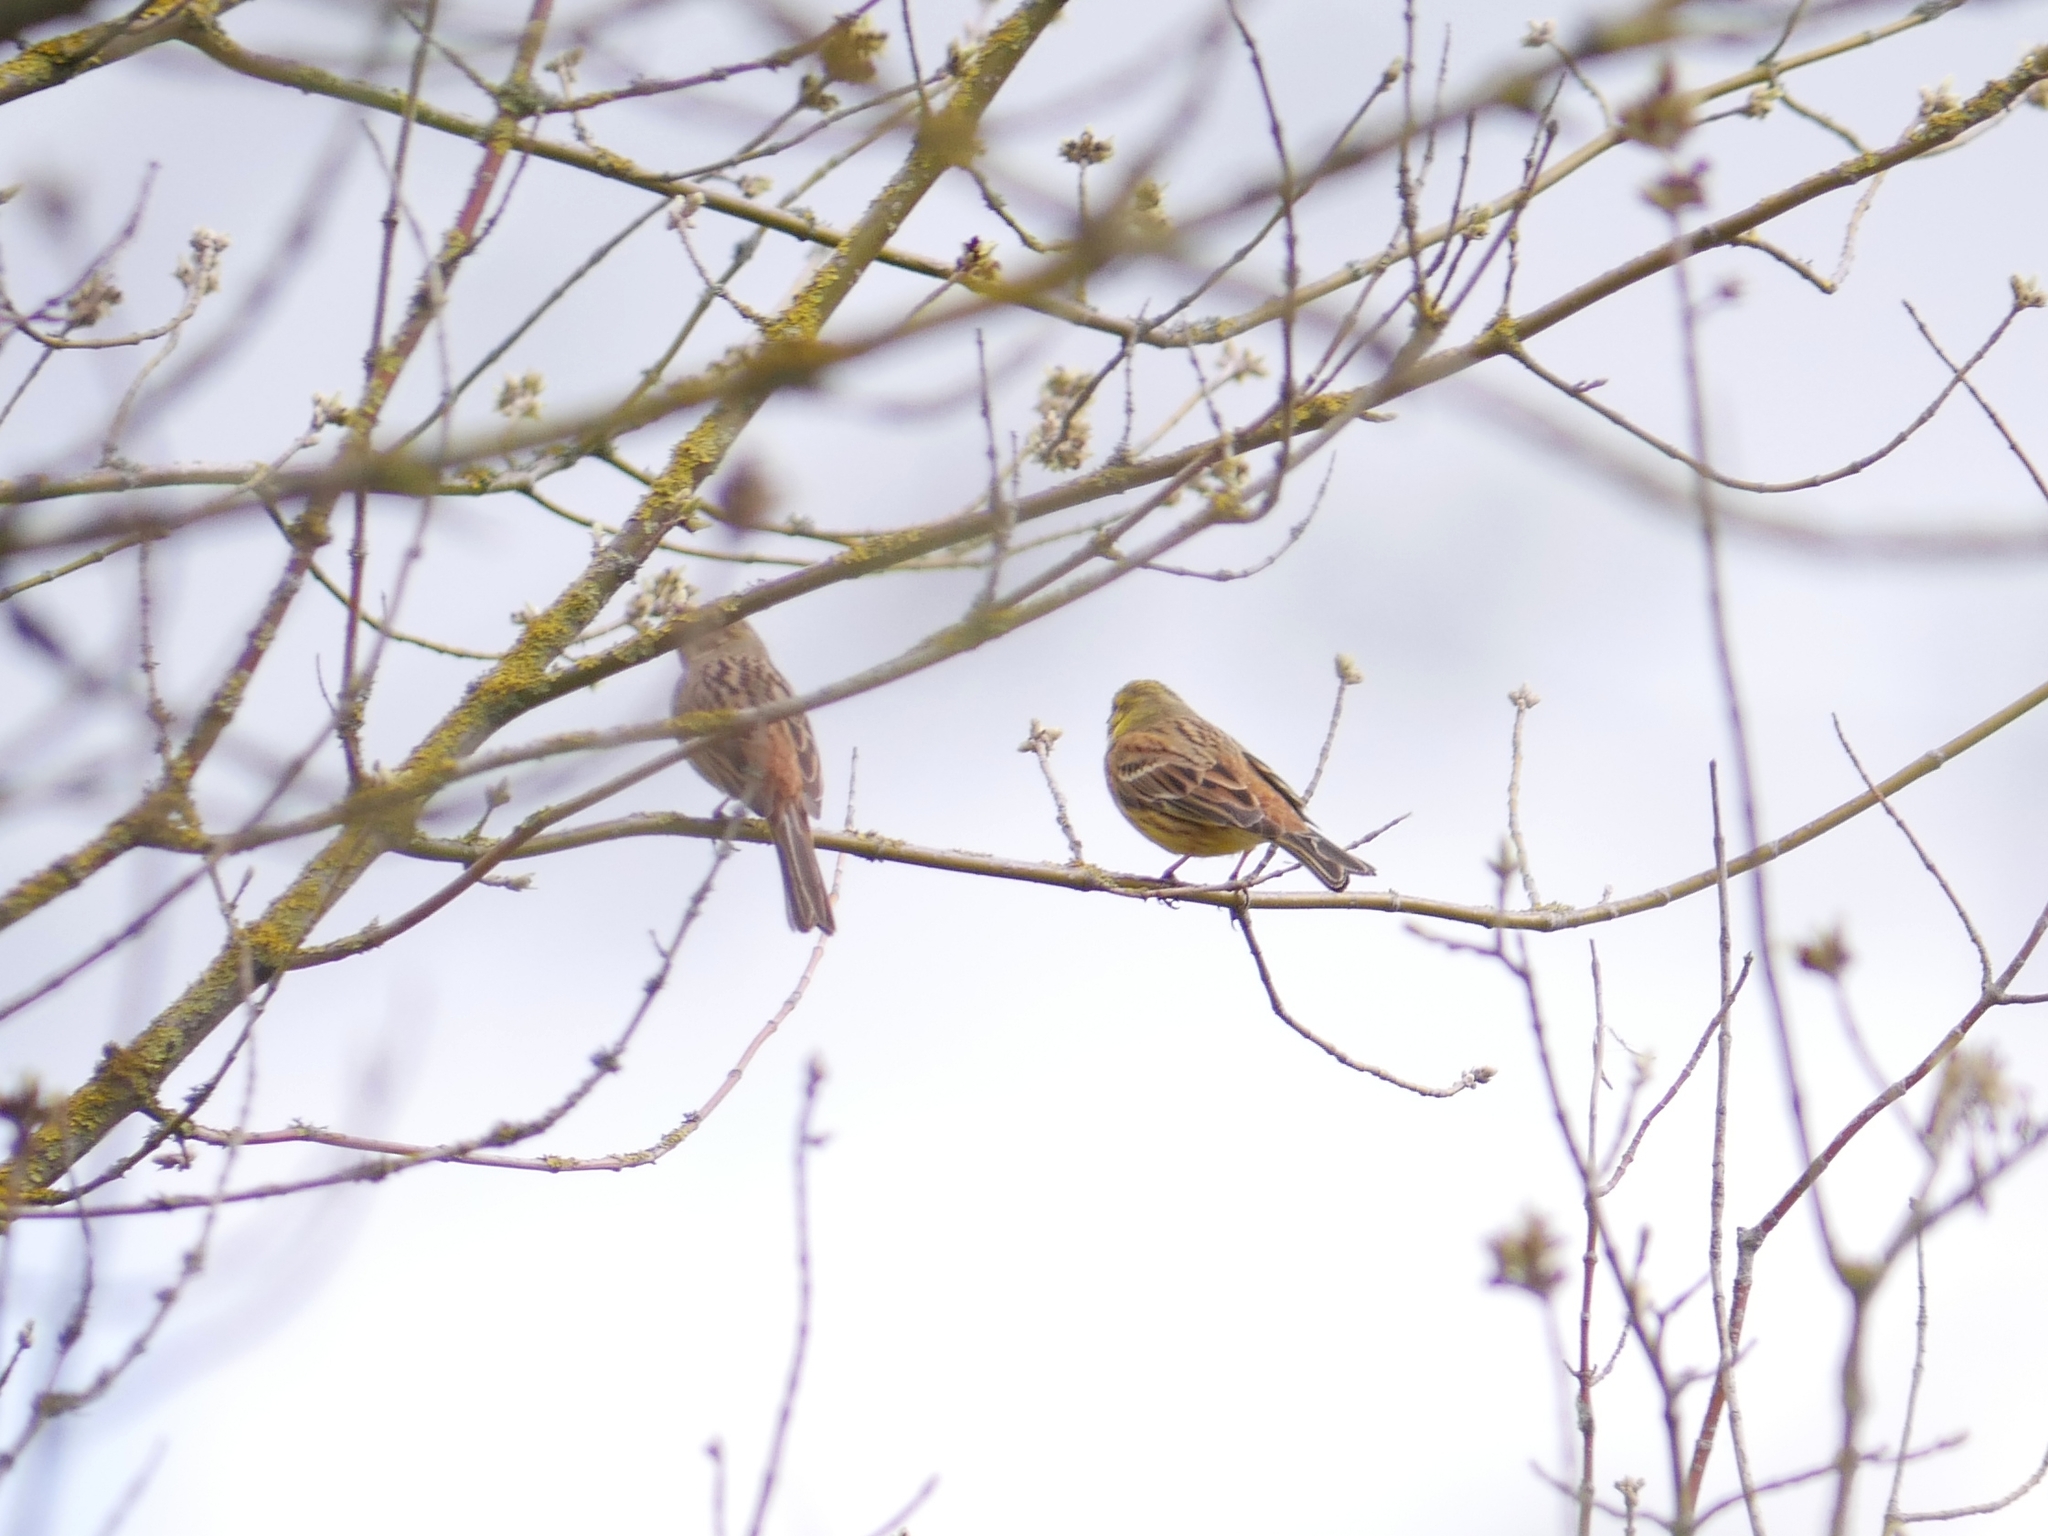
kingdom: Animalia
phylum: Chordata
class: Aves
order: Passeriformes
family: Emberizidae
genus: Emberiza
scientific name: Emberiza citrinella
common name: Yellowhammer
